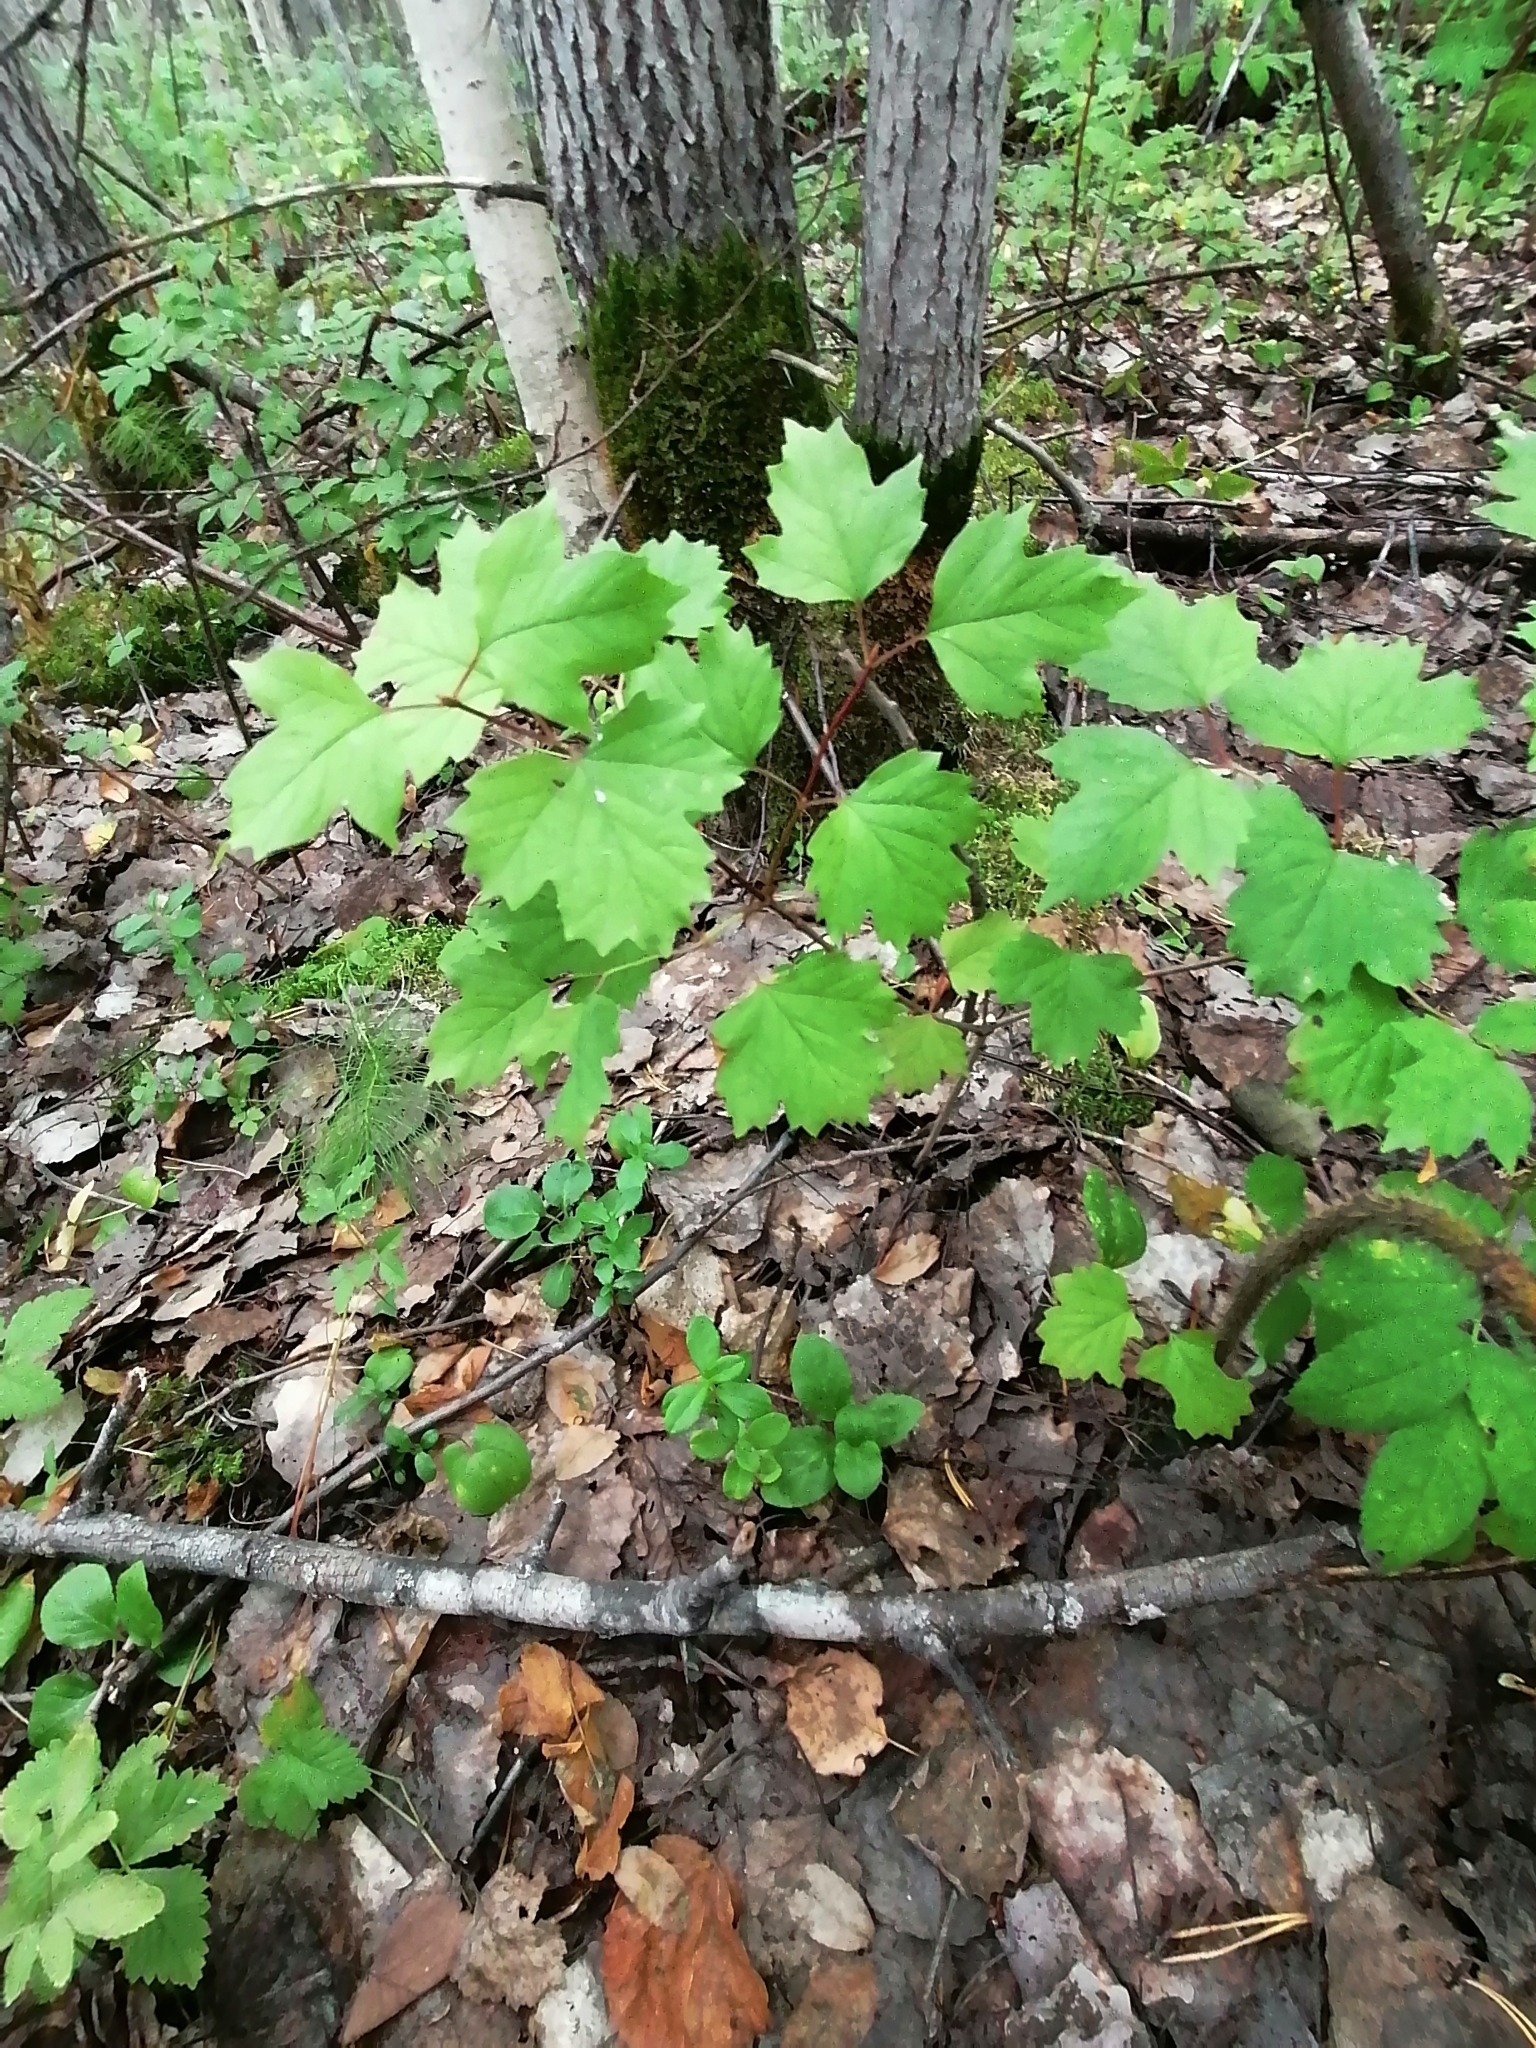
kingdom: Plantae
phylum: Tracheophyta
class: Magnoliopsida
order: Dipsacales
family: Viburnaceae
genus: Viburnum
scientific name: Viburnum opulus
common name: Guelder-rose
